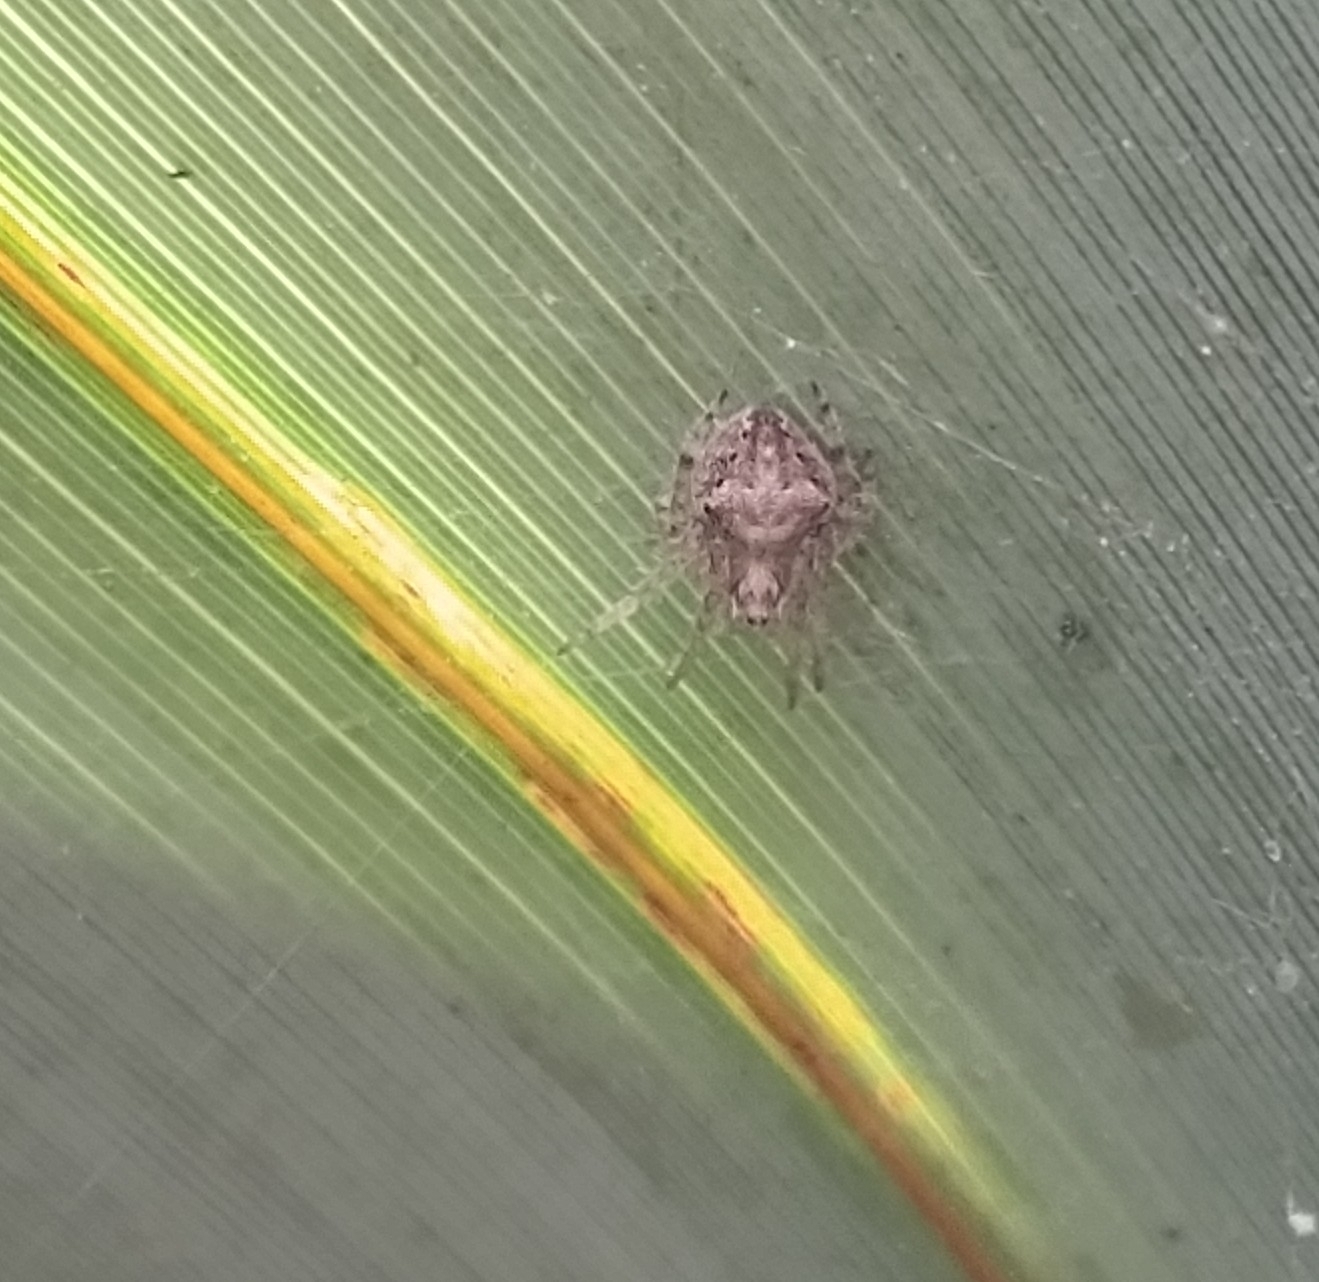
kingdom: Animalia
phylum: Arthropoda
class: Arachnida
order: Araneae
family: Araneidae
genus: Eriophora
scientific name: Eriophora pustulosa
